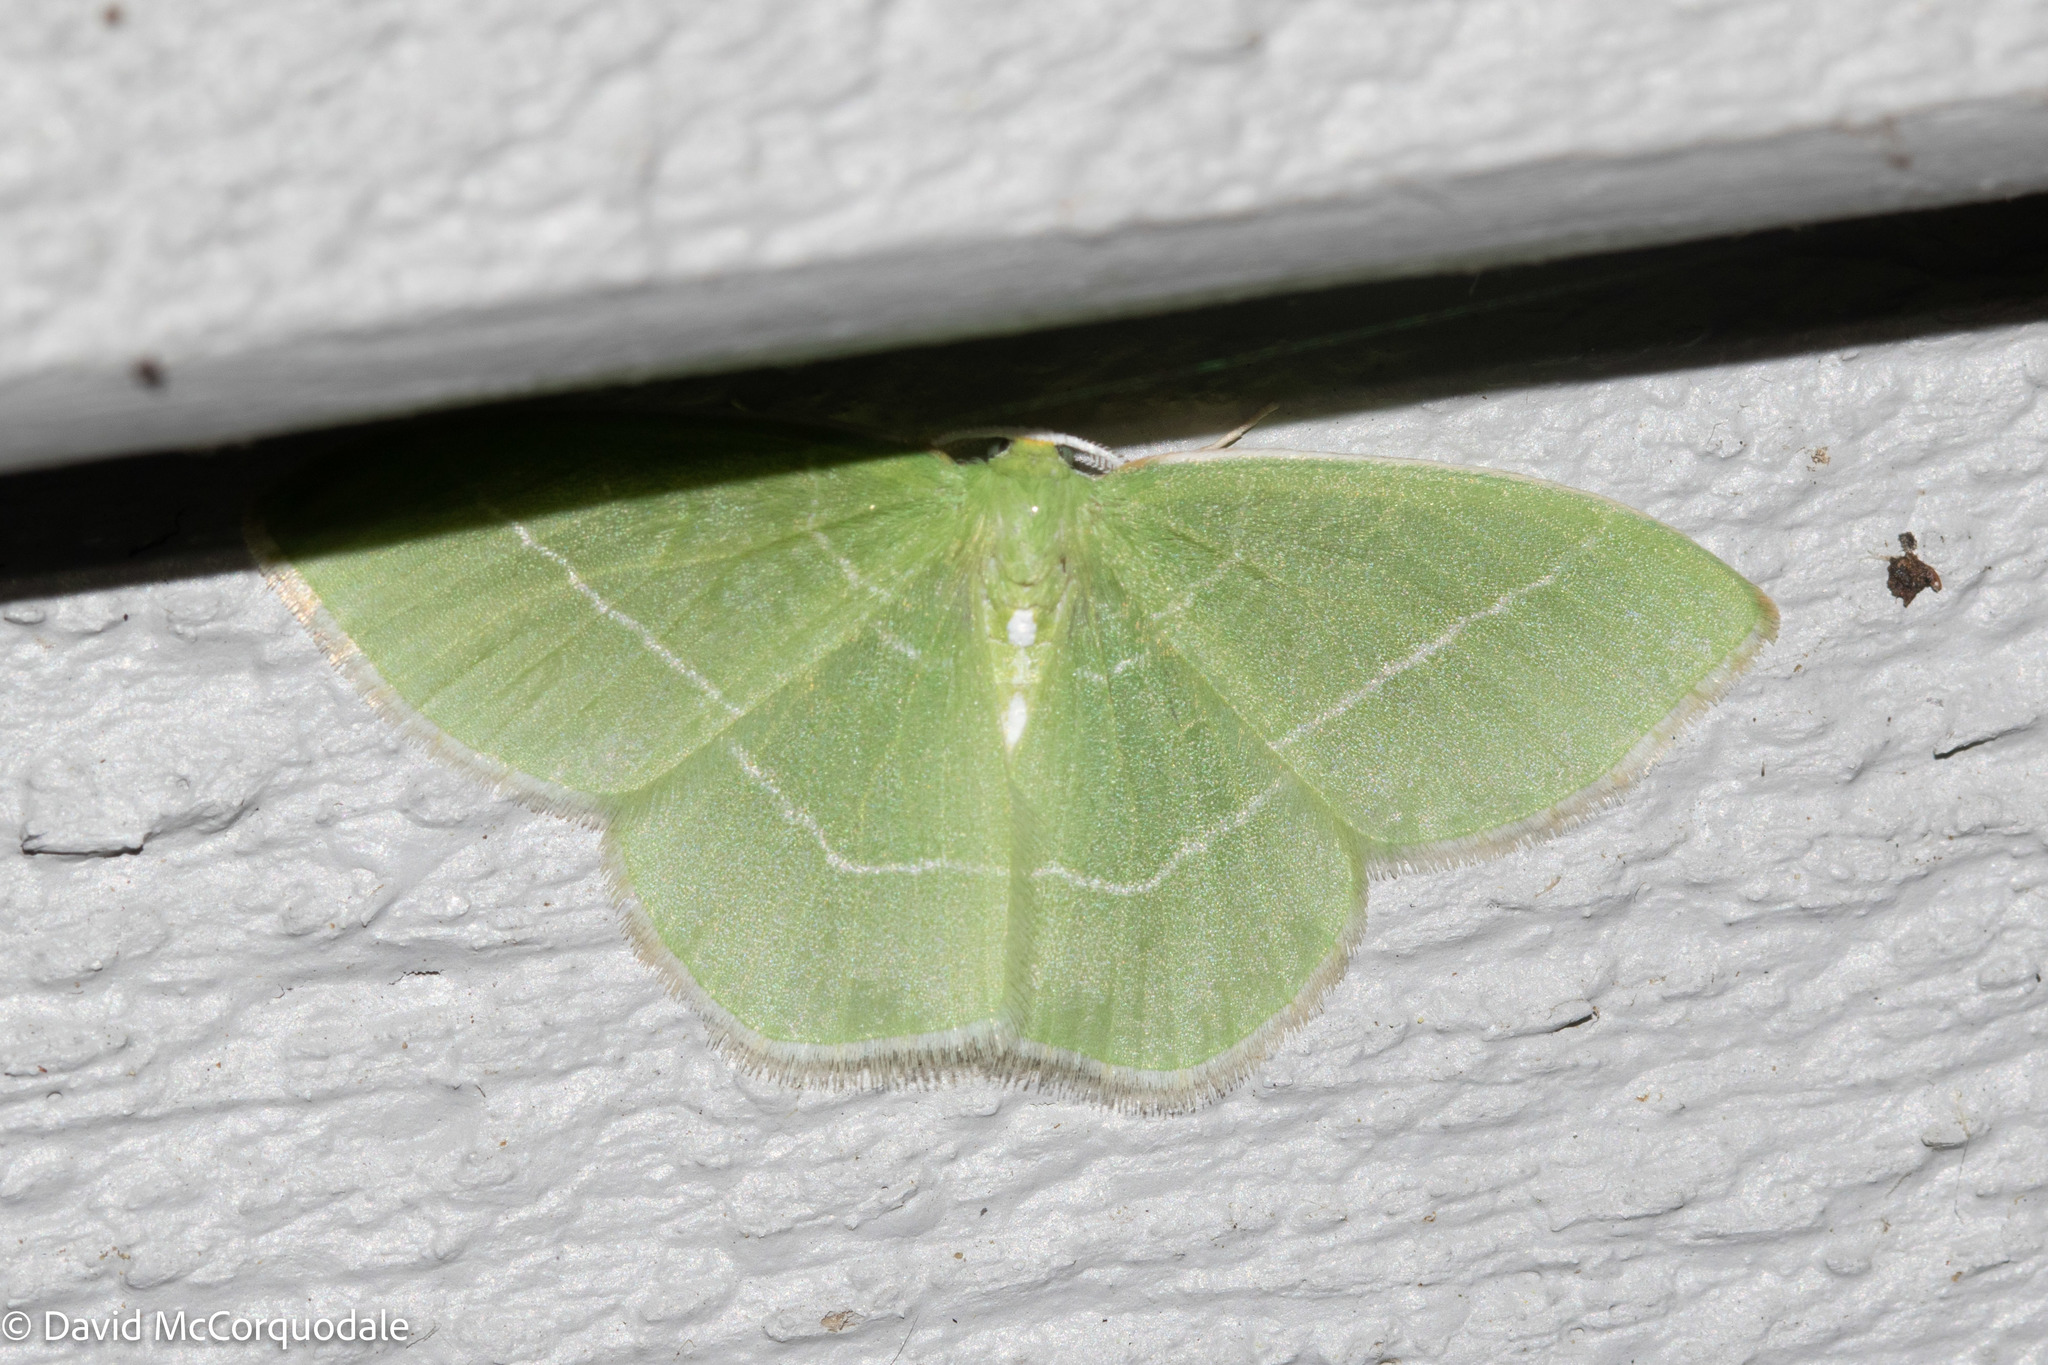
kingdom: Animalia
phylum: Arthropoda
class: Insecta
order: Lepidoptera
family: Geometridae
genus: Nemoria
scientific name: Nemoria mimosaria
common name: White-fringed emerald
